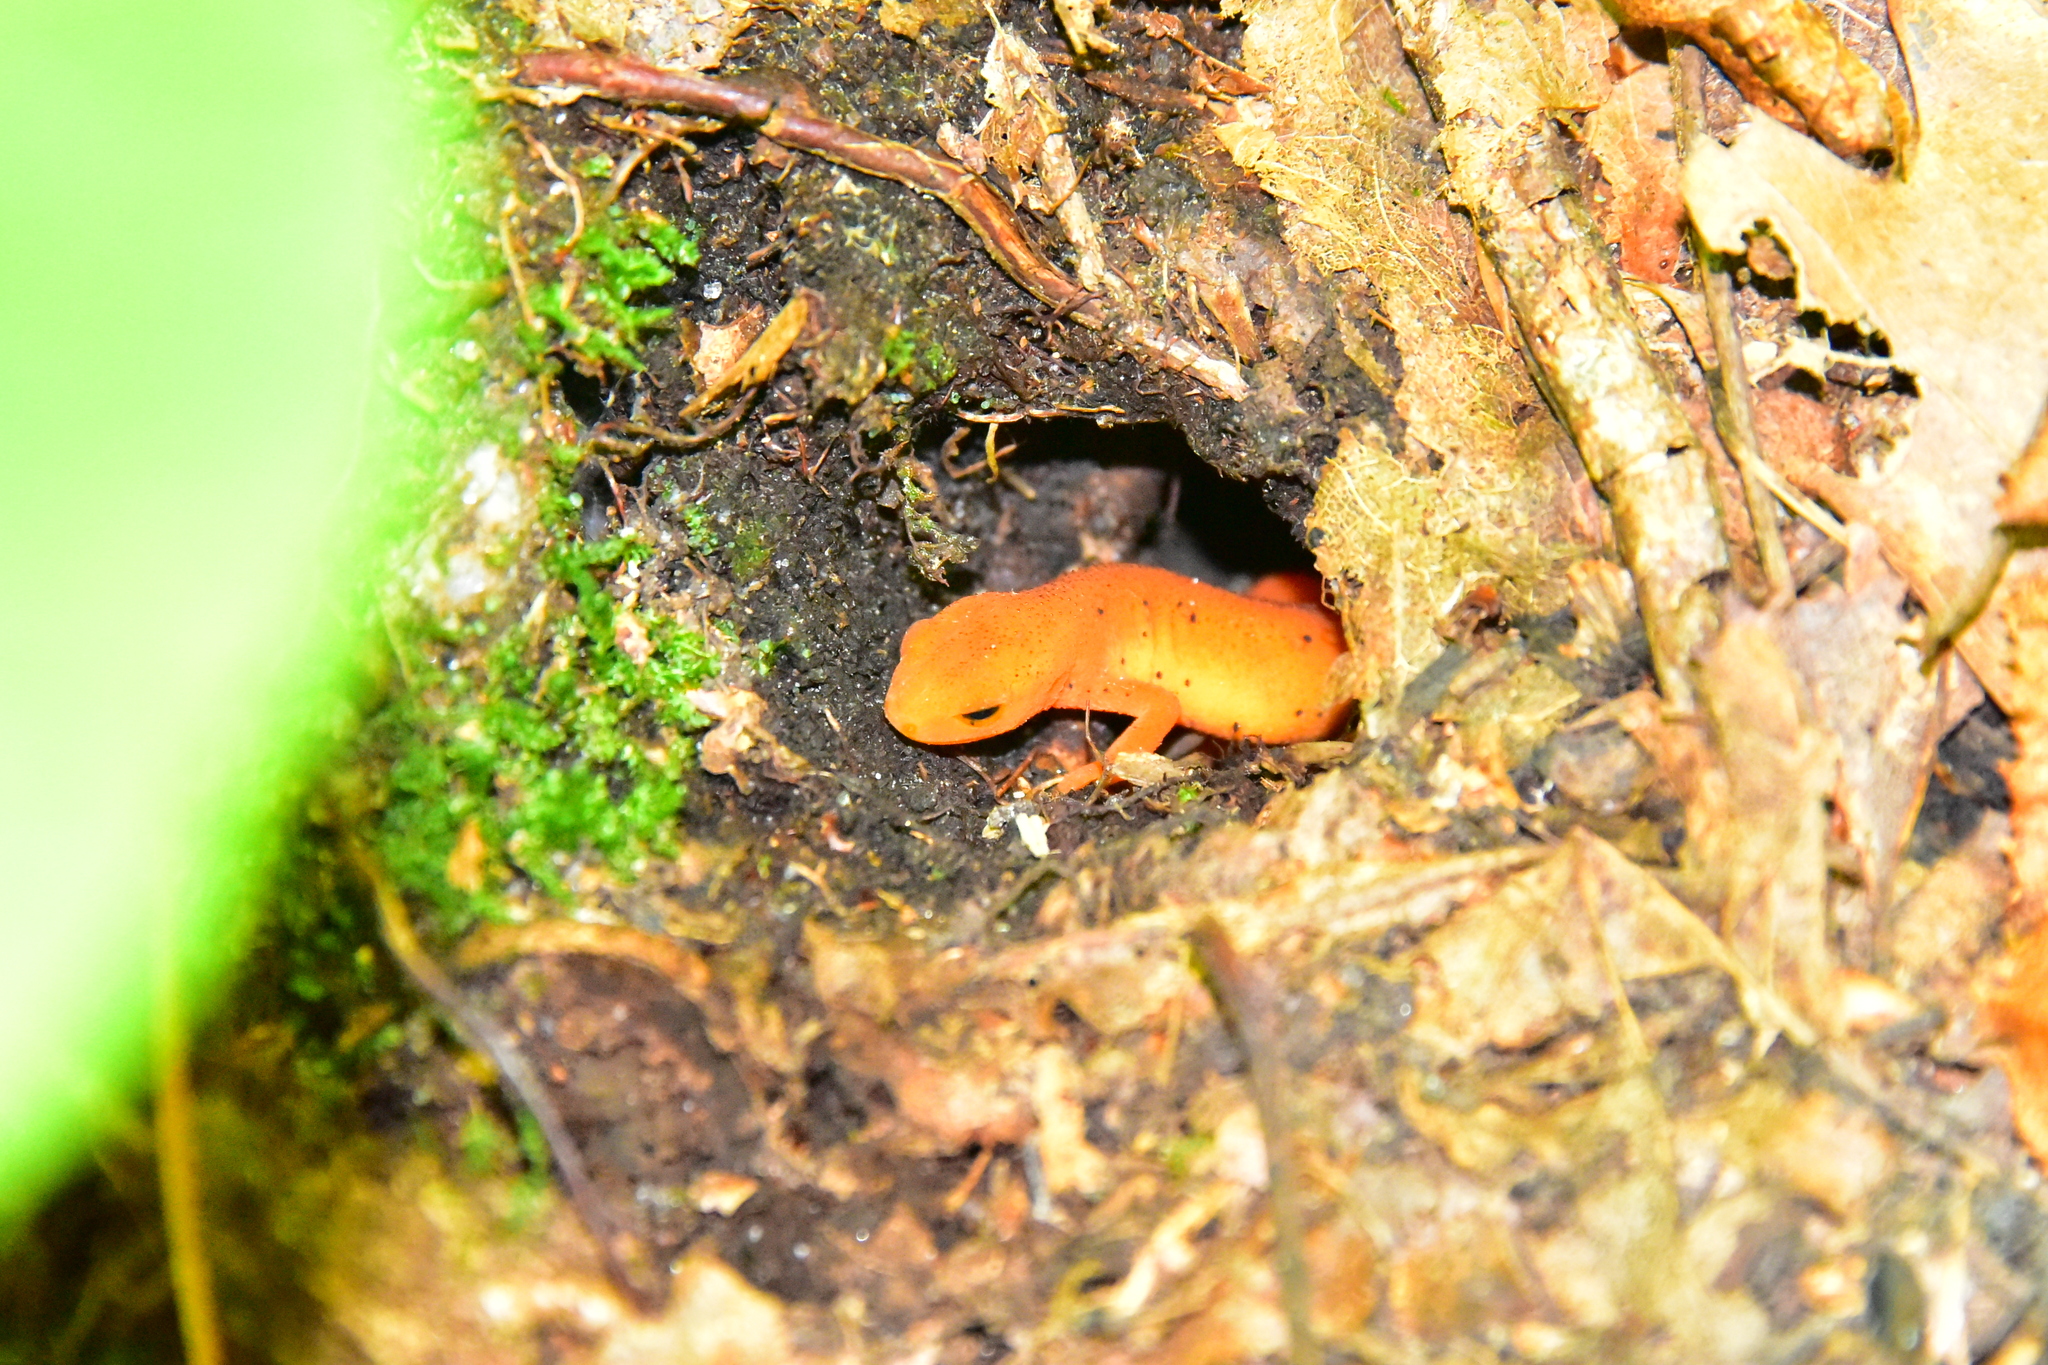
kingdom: Animalia
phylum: Chordata
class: Amphibia
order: Caudata
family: Salamandridae
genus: Notophthalmus
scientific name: Notophthalmus viridescens
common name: Eastern newt
